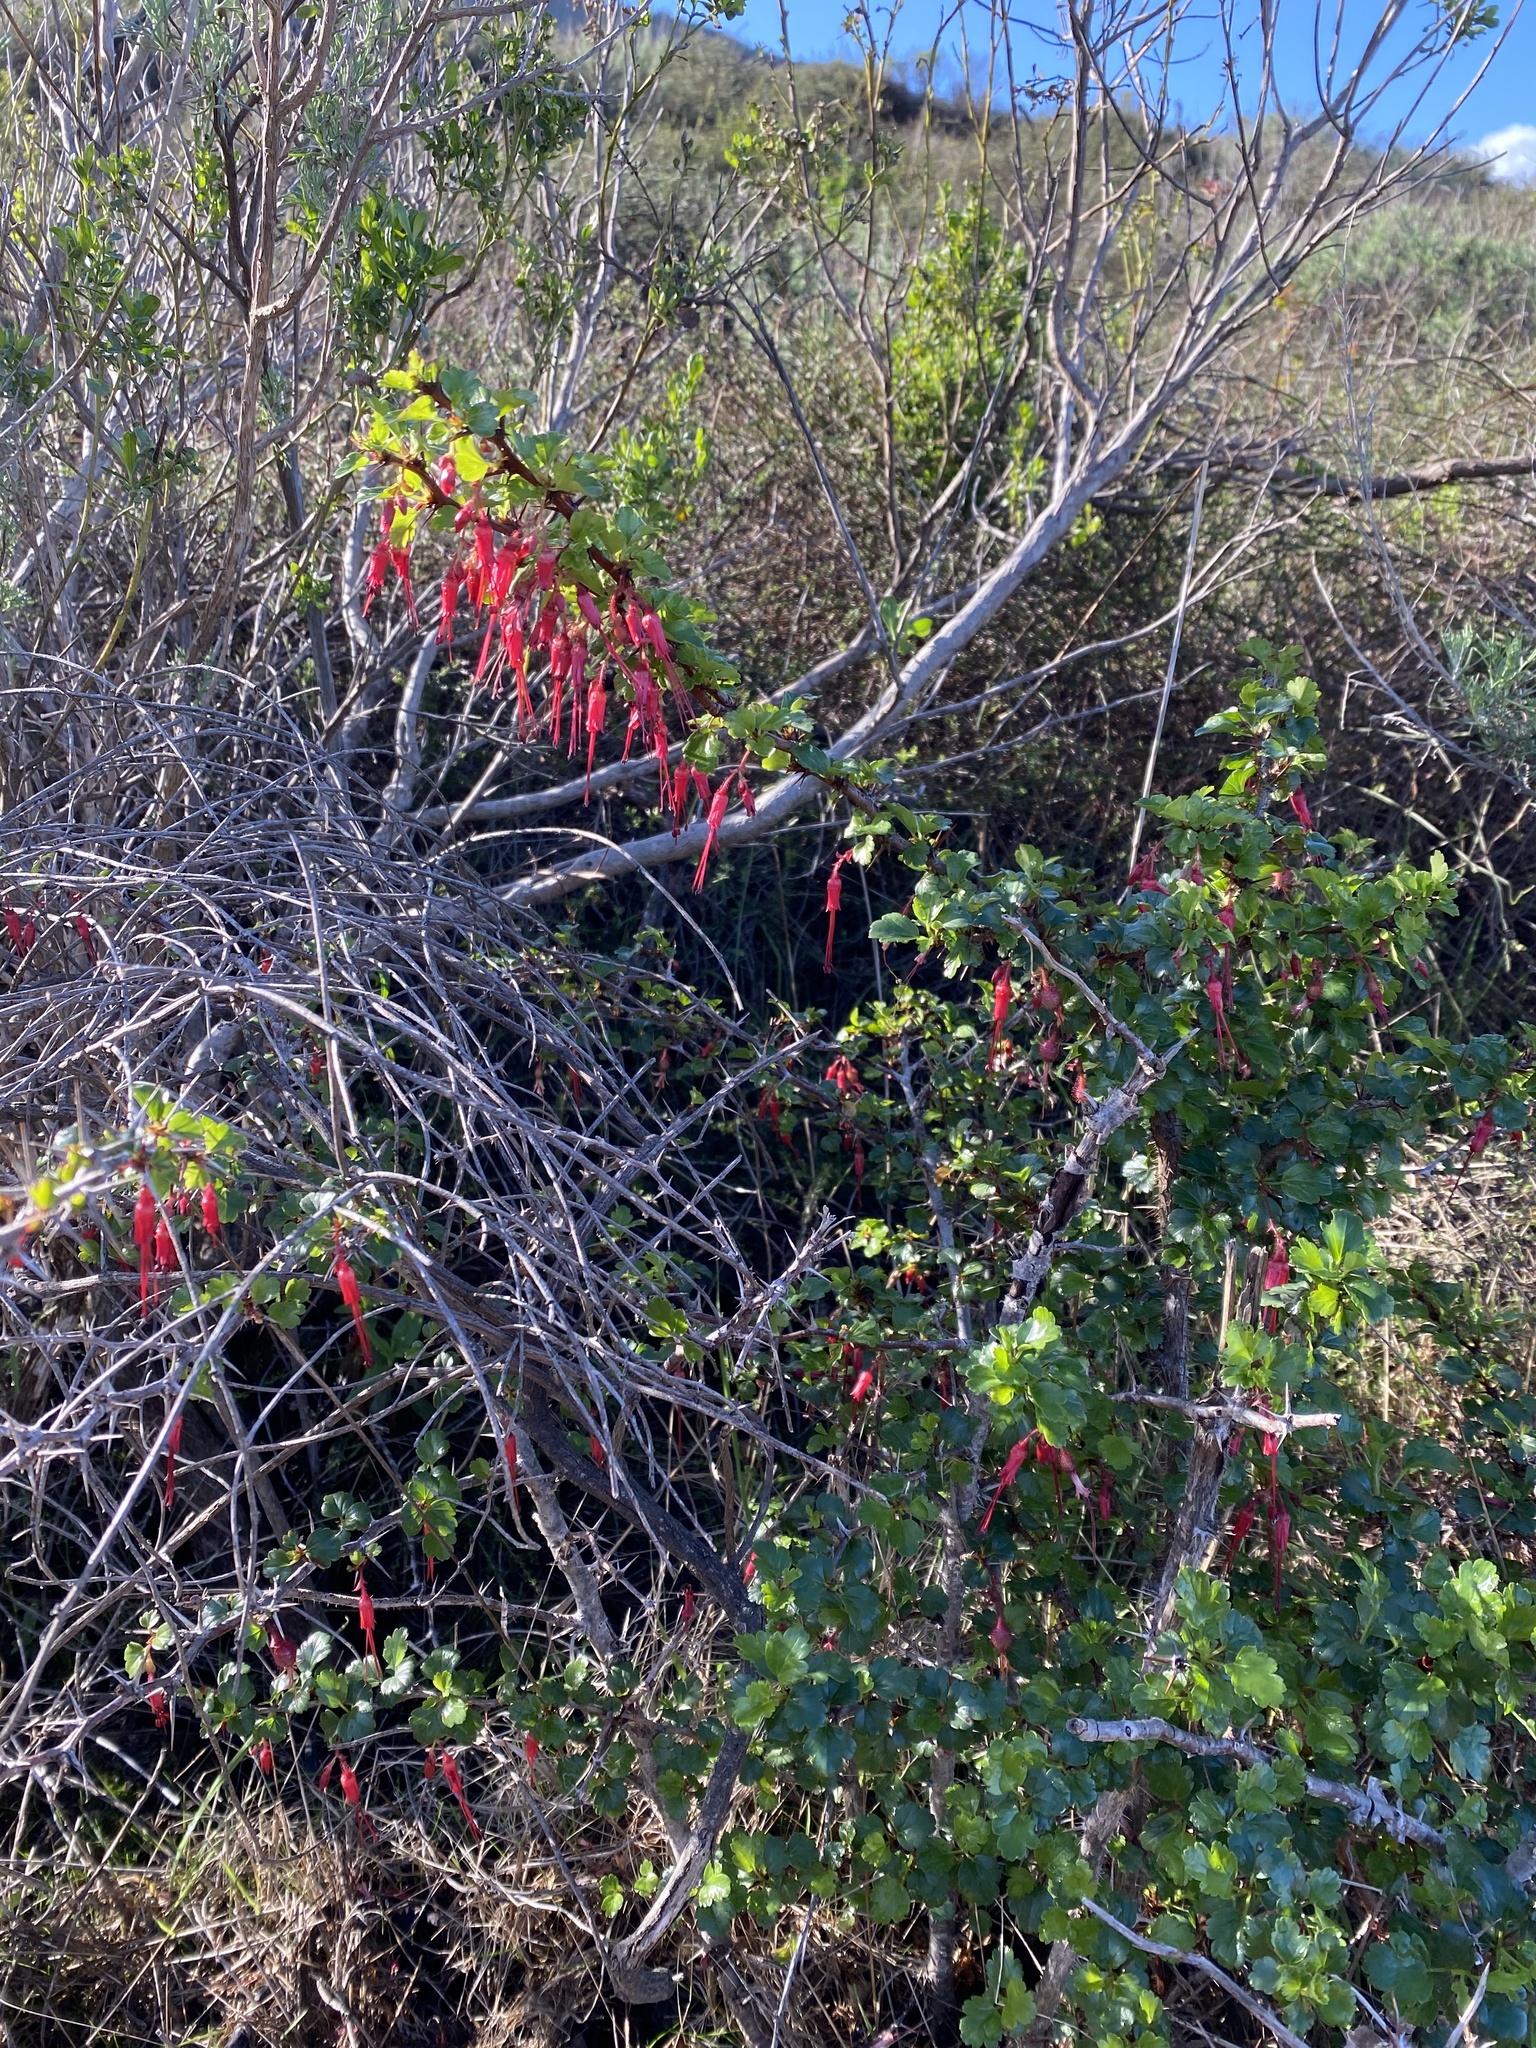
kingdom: Plantae
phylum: Tracheophyta
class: Magnoliopsida
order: Saxifragales
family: Grossulariaceae
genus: Ribes
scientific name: Ribes speciosum
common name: Fuchsia-flower gooseberry
